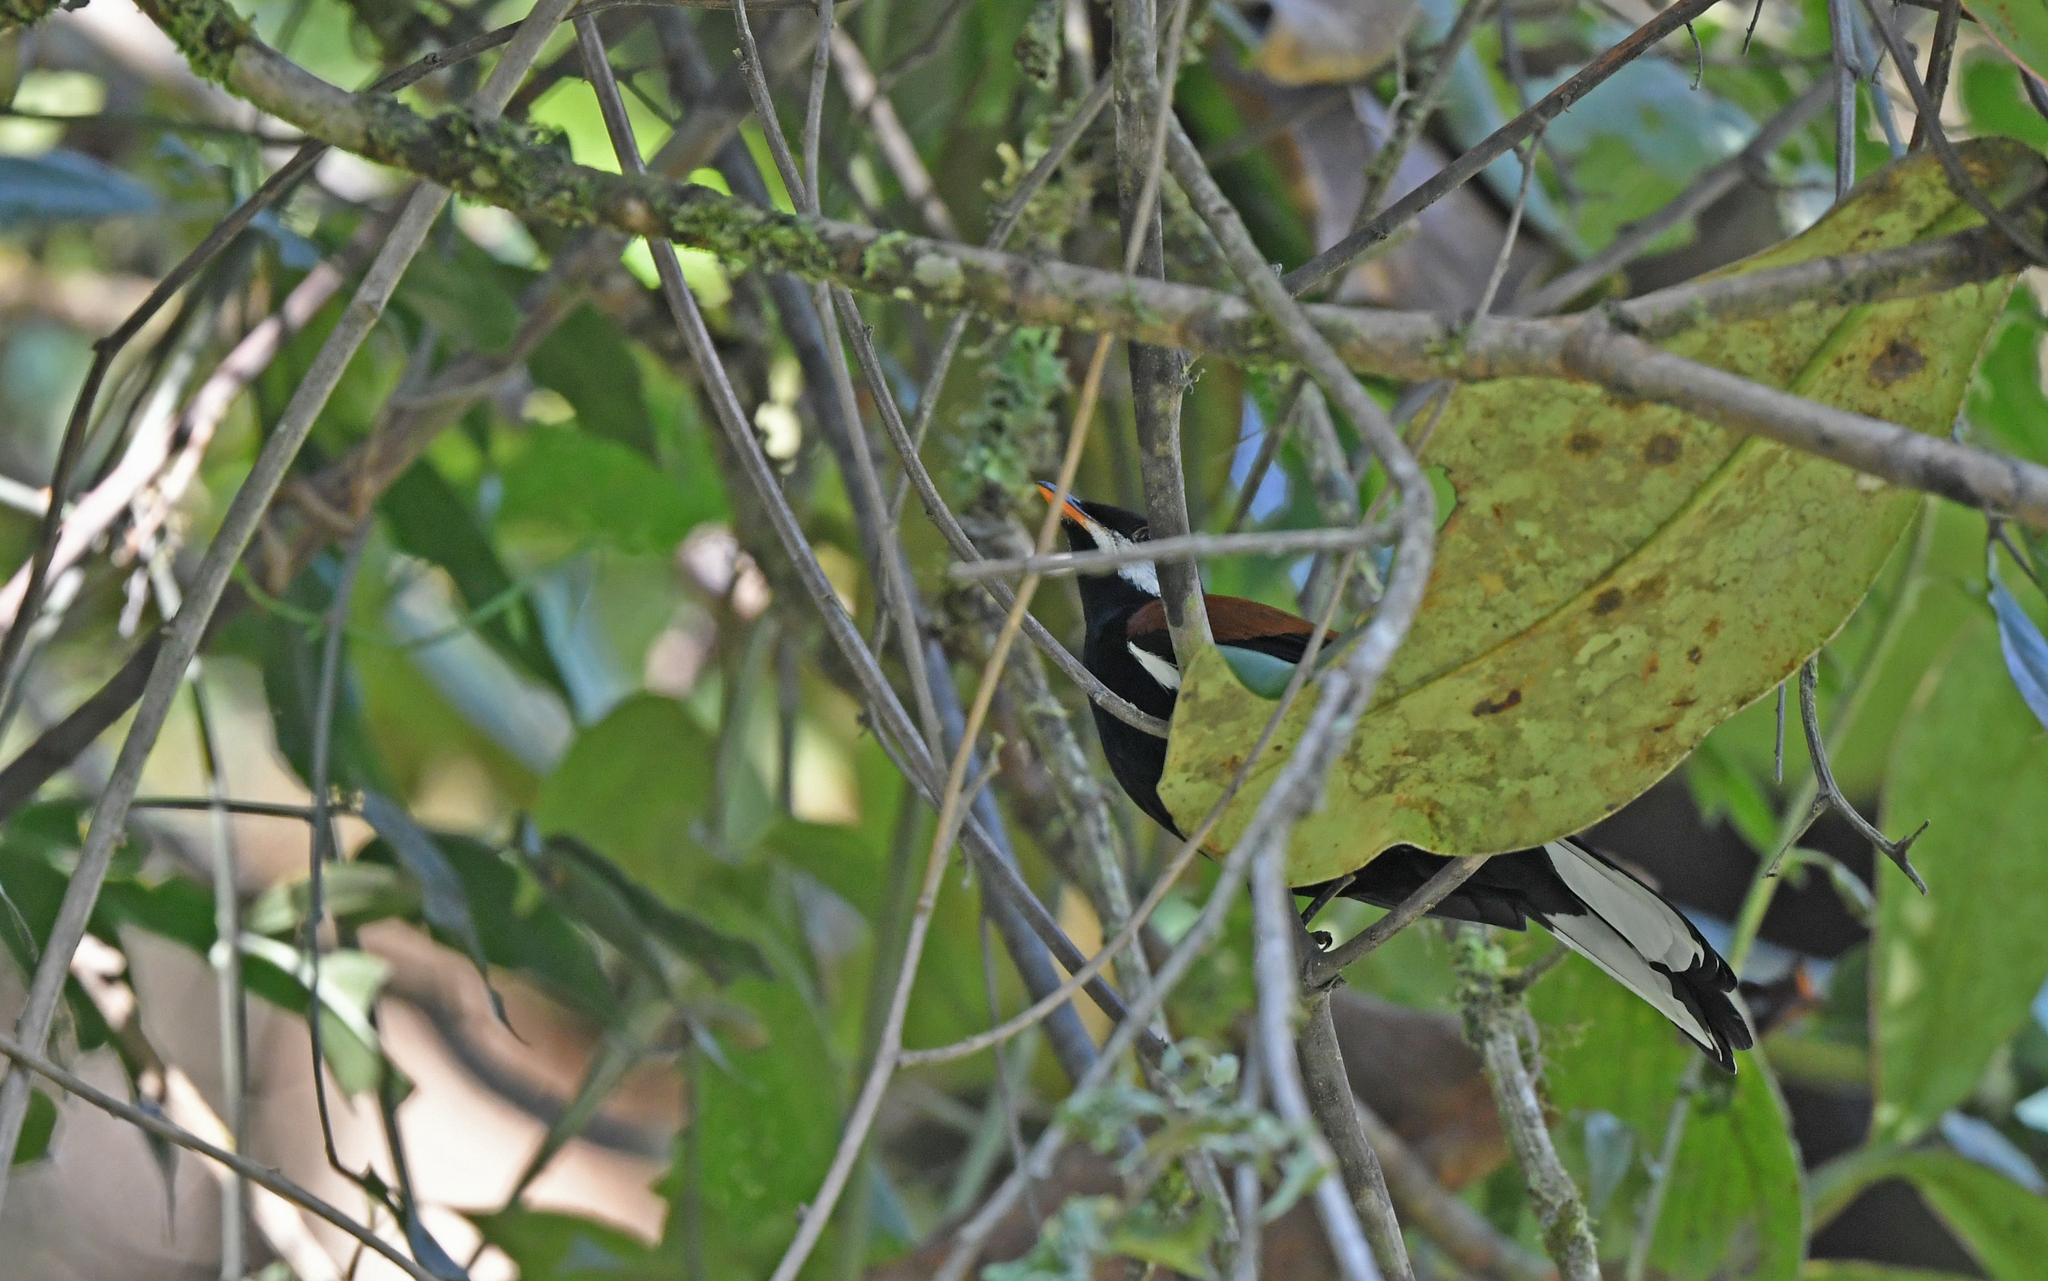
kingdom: Animalia
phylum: Chordata
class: Aves
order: Passeriformes
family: Turdidae
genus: Entomodestes
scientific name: Entomodestes leucotis
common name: White-eared solitaire
